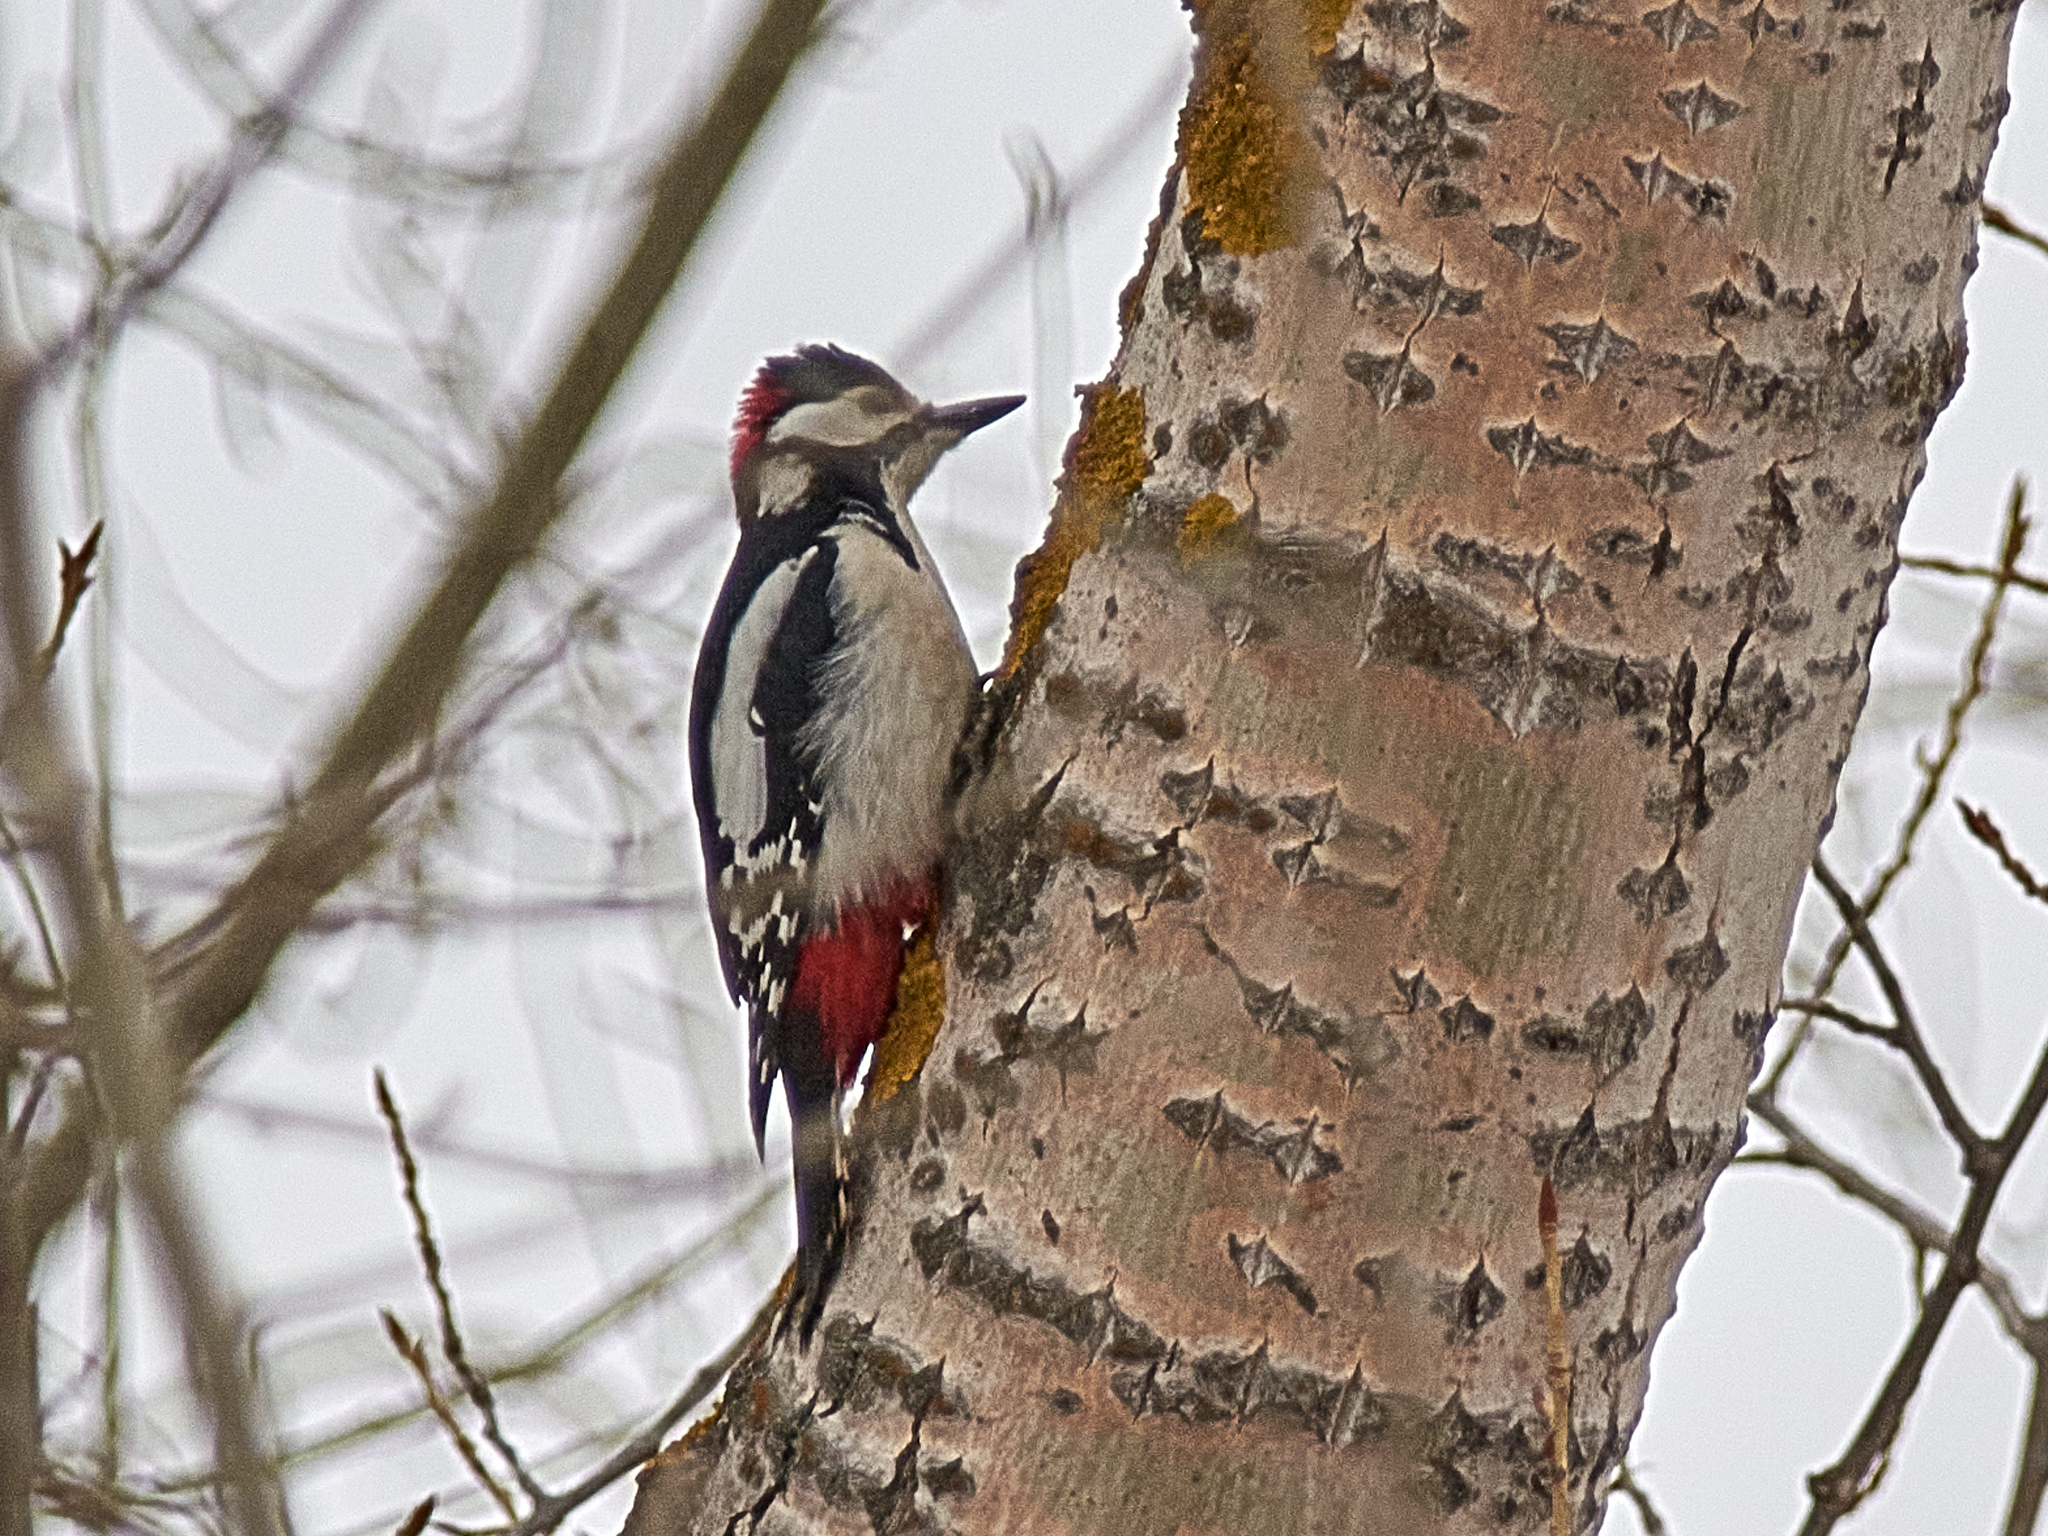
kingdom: Animalia
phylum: Chordata
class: Aves
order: Piciformes
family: Picidae
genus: Dendrocopos
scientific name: Dendrocopos major
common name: Great spotted woodpecker
